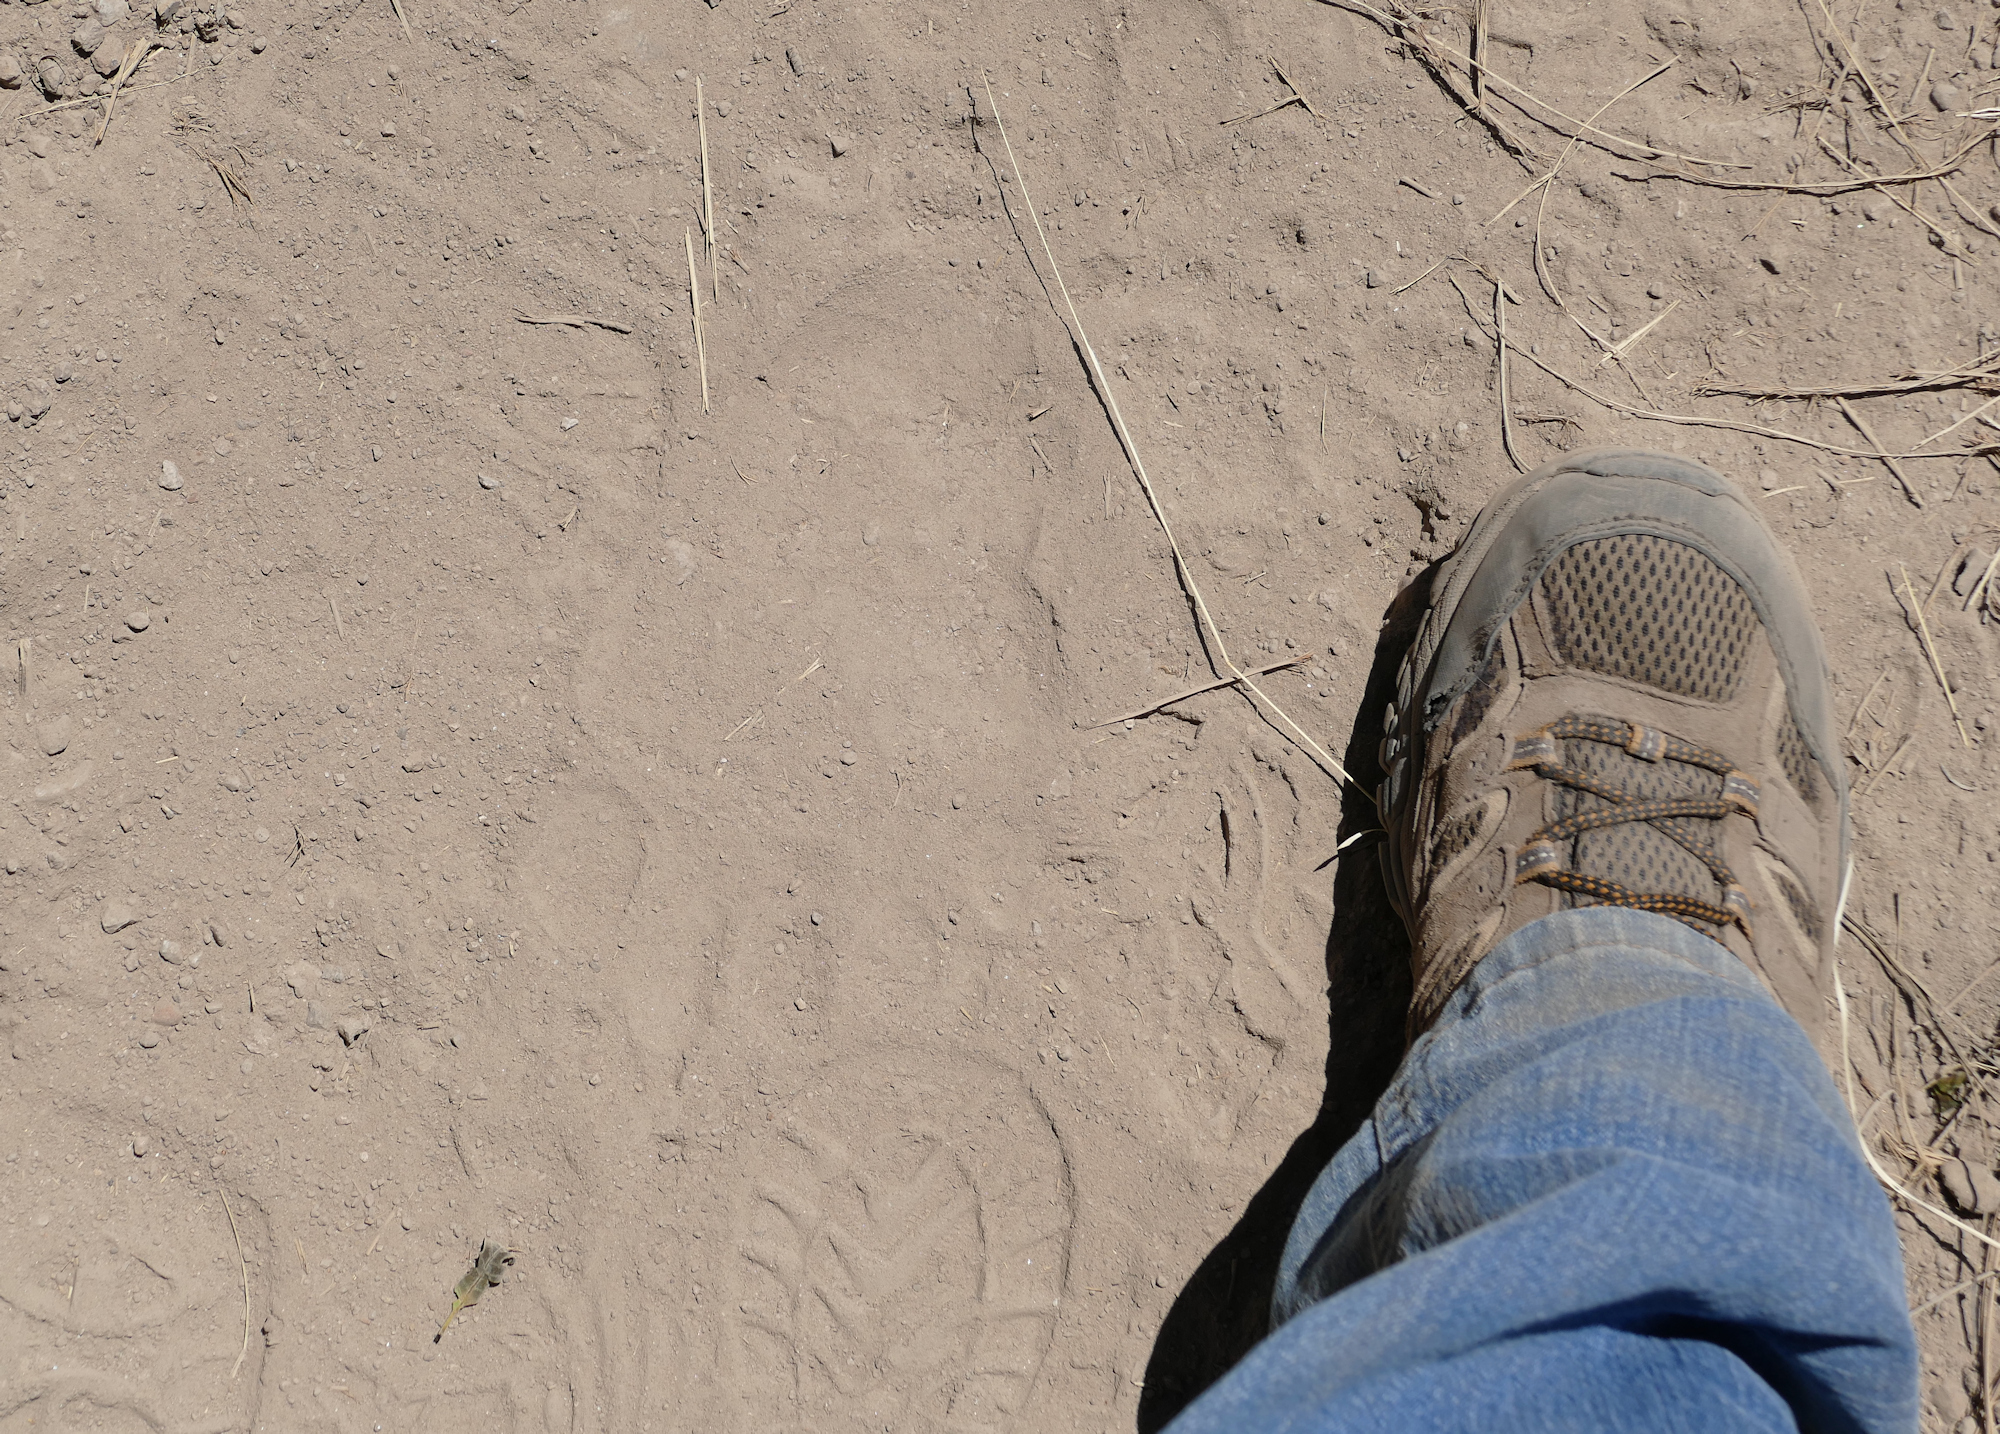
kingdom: Animalia
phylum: Chordata
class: Mammalia
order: Carnivora
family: Ursidae
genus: Ursus
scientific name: Ursus americanus
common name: American black bear
